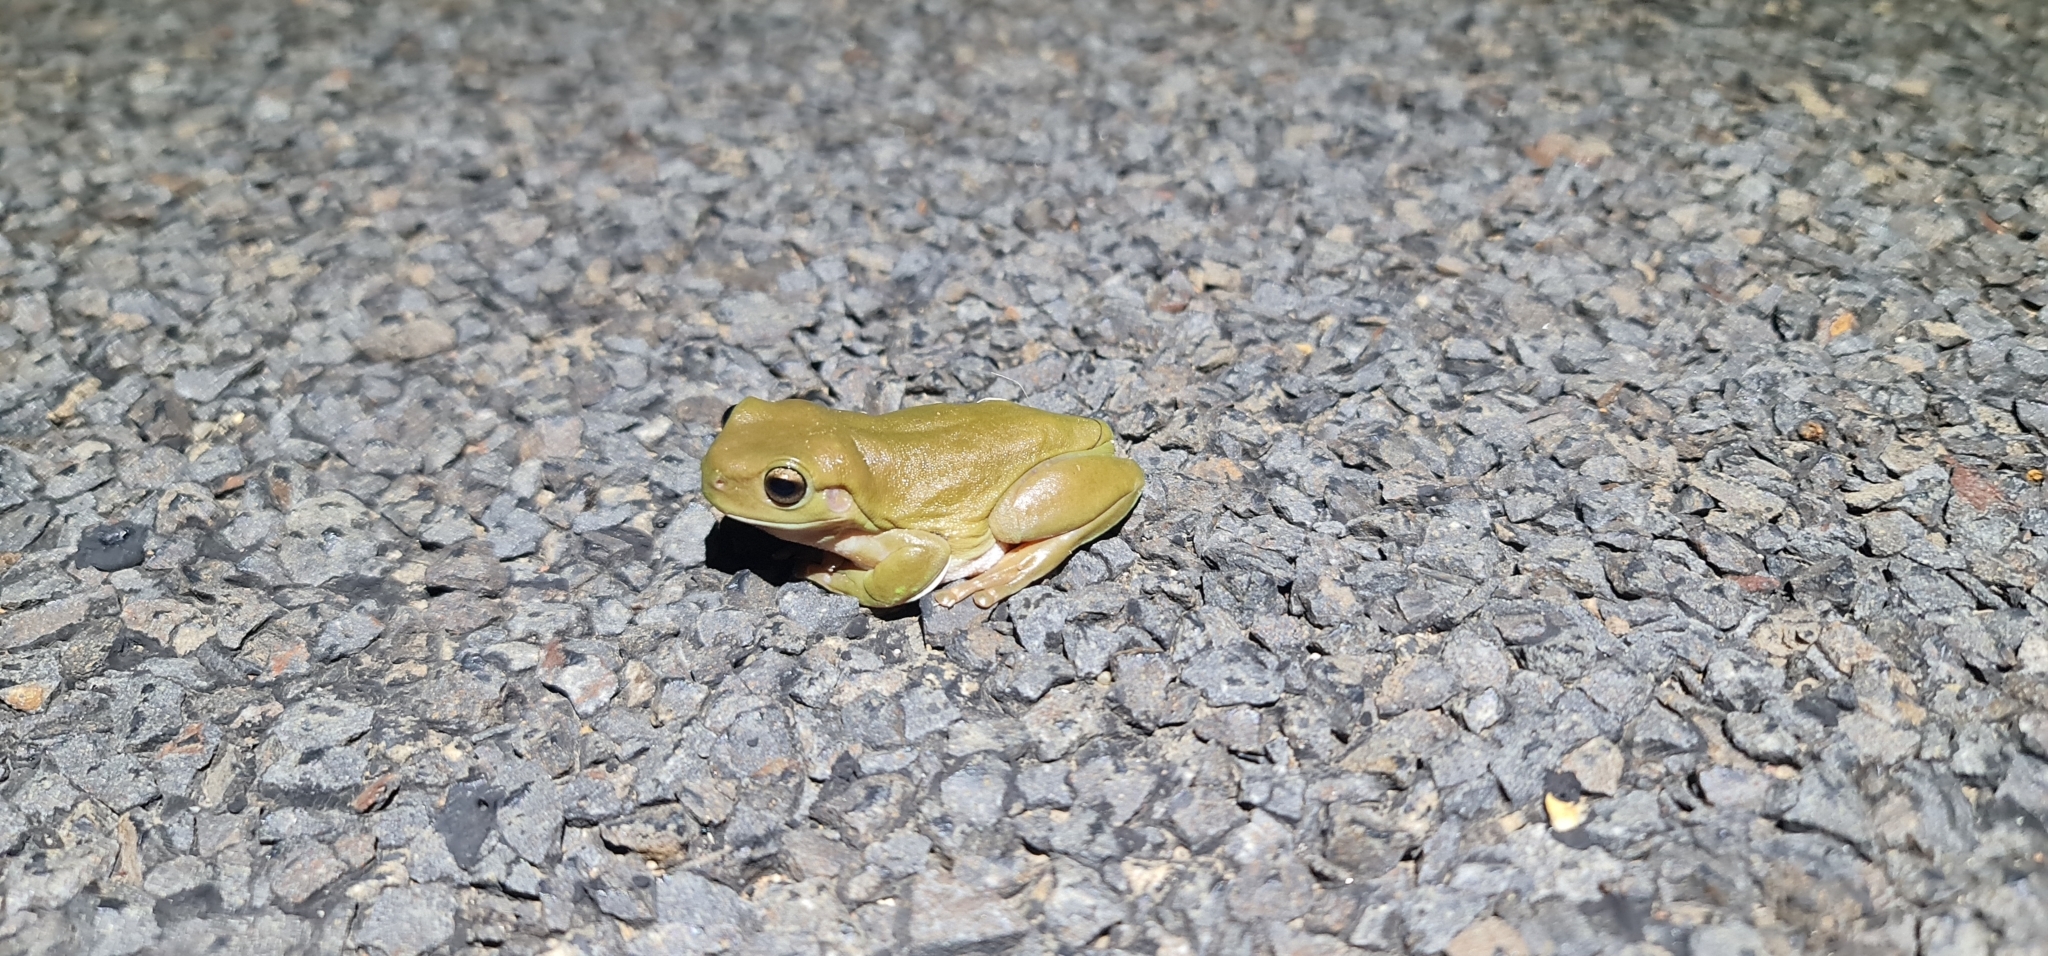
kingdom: Animalia
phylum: Chordata
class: Amphibia
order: Anura
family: Pelodryadidae
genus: Ranoidea
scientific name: Ranoidea caerulea
